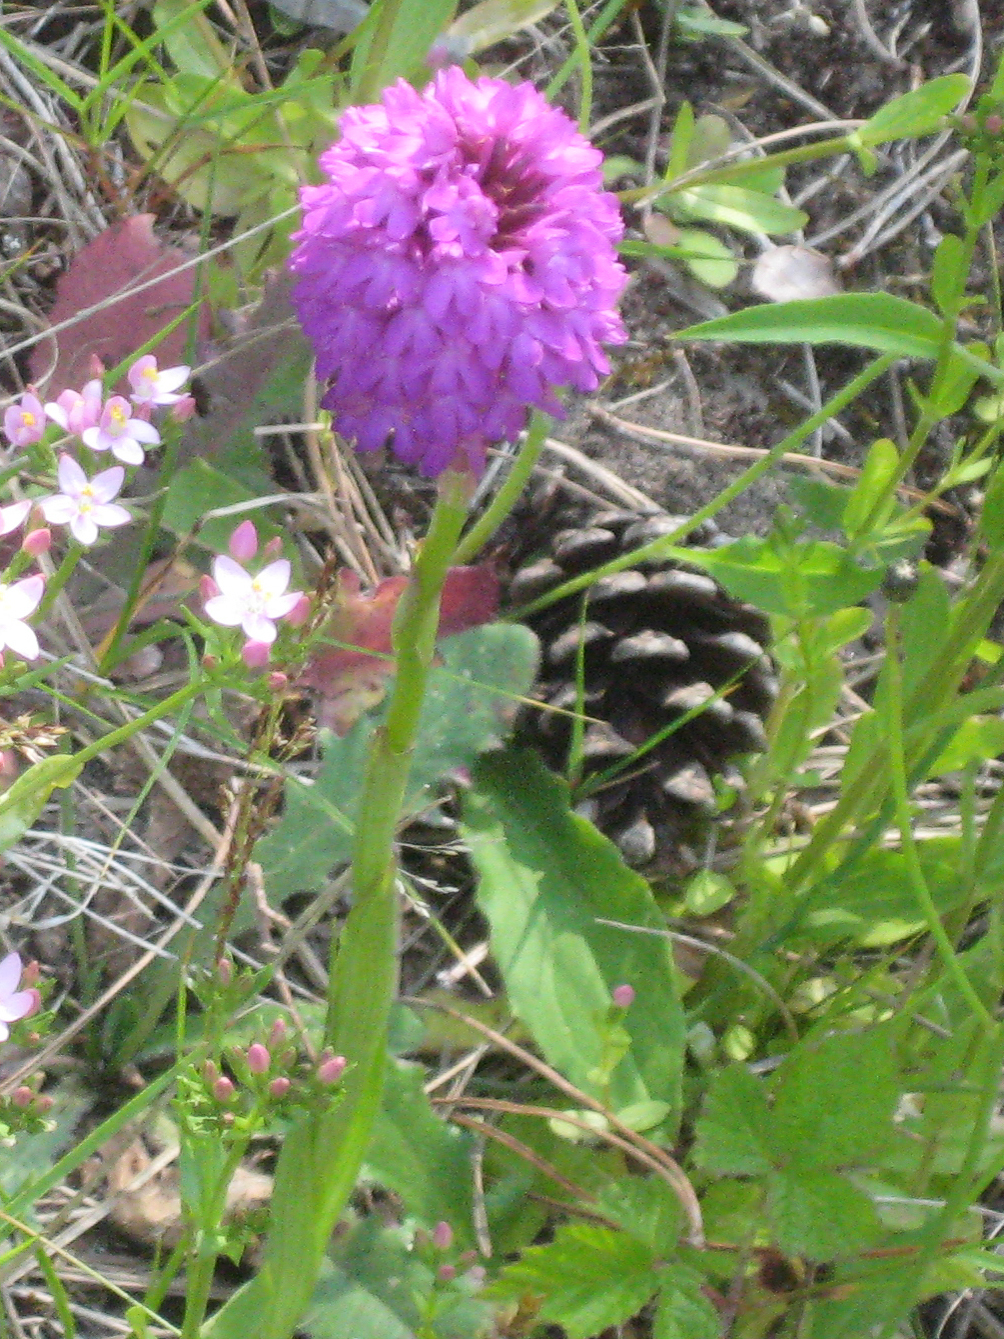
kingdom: Plantae
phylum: Tracheophyta
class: Liliopsida
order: Asparagales
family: Orchidaceae
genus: Anacamptis
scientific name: Anacamptis pyramidalis
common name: Pyramidal orchid
